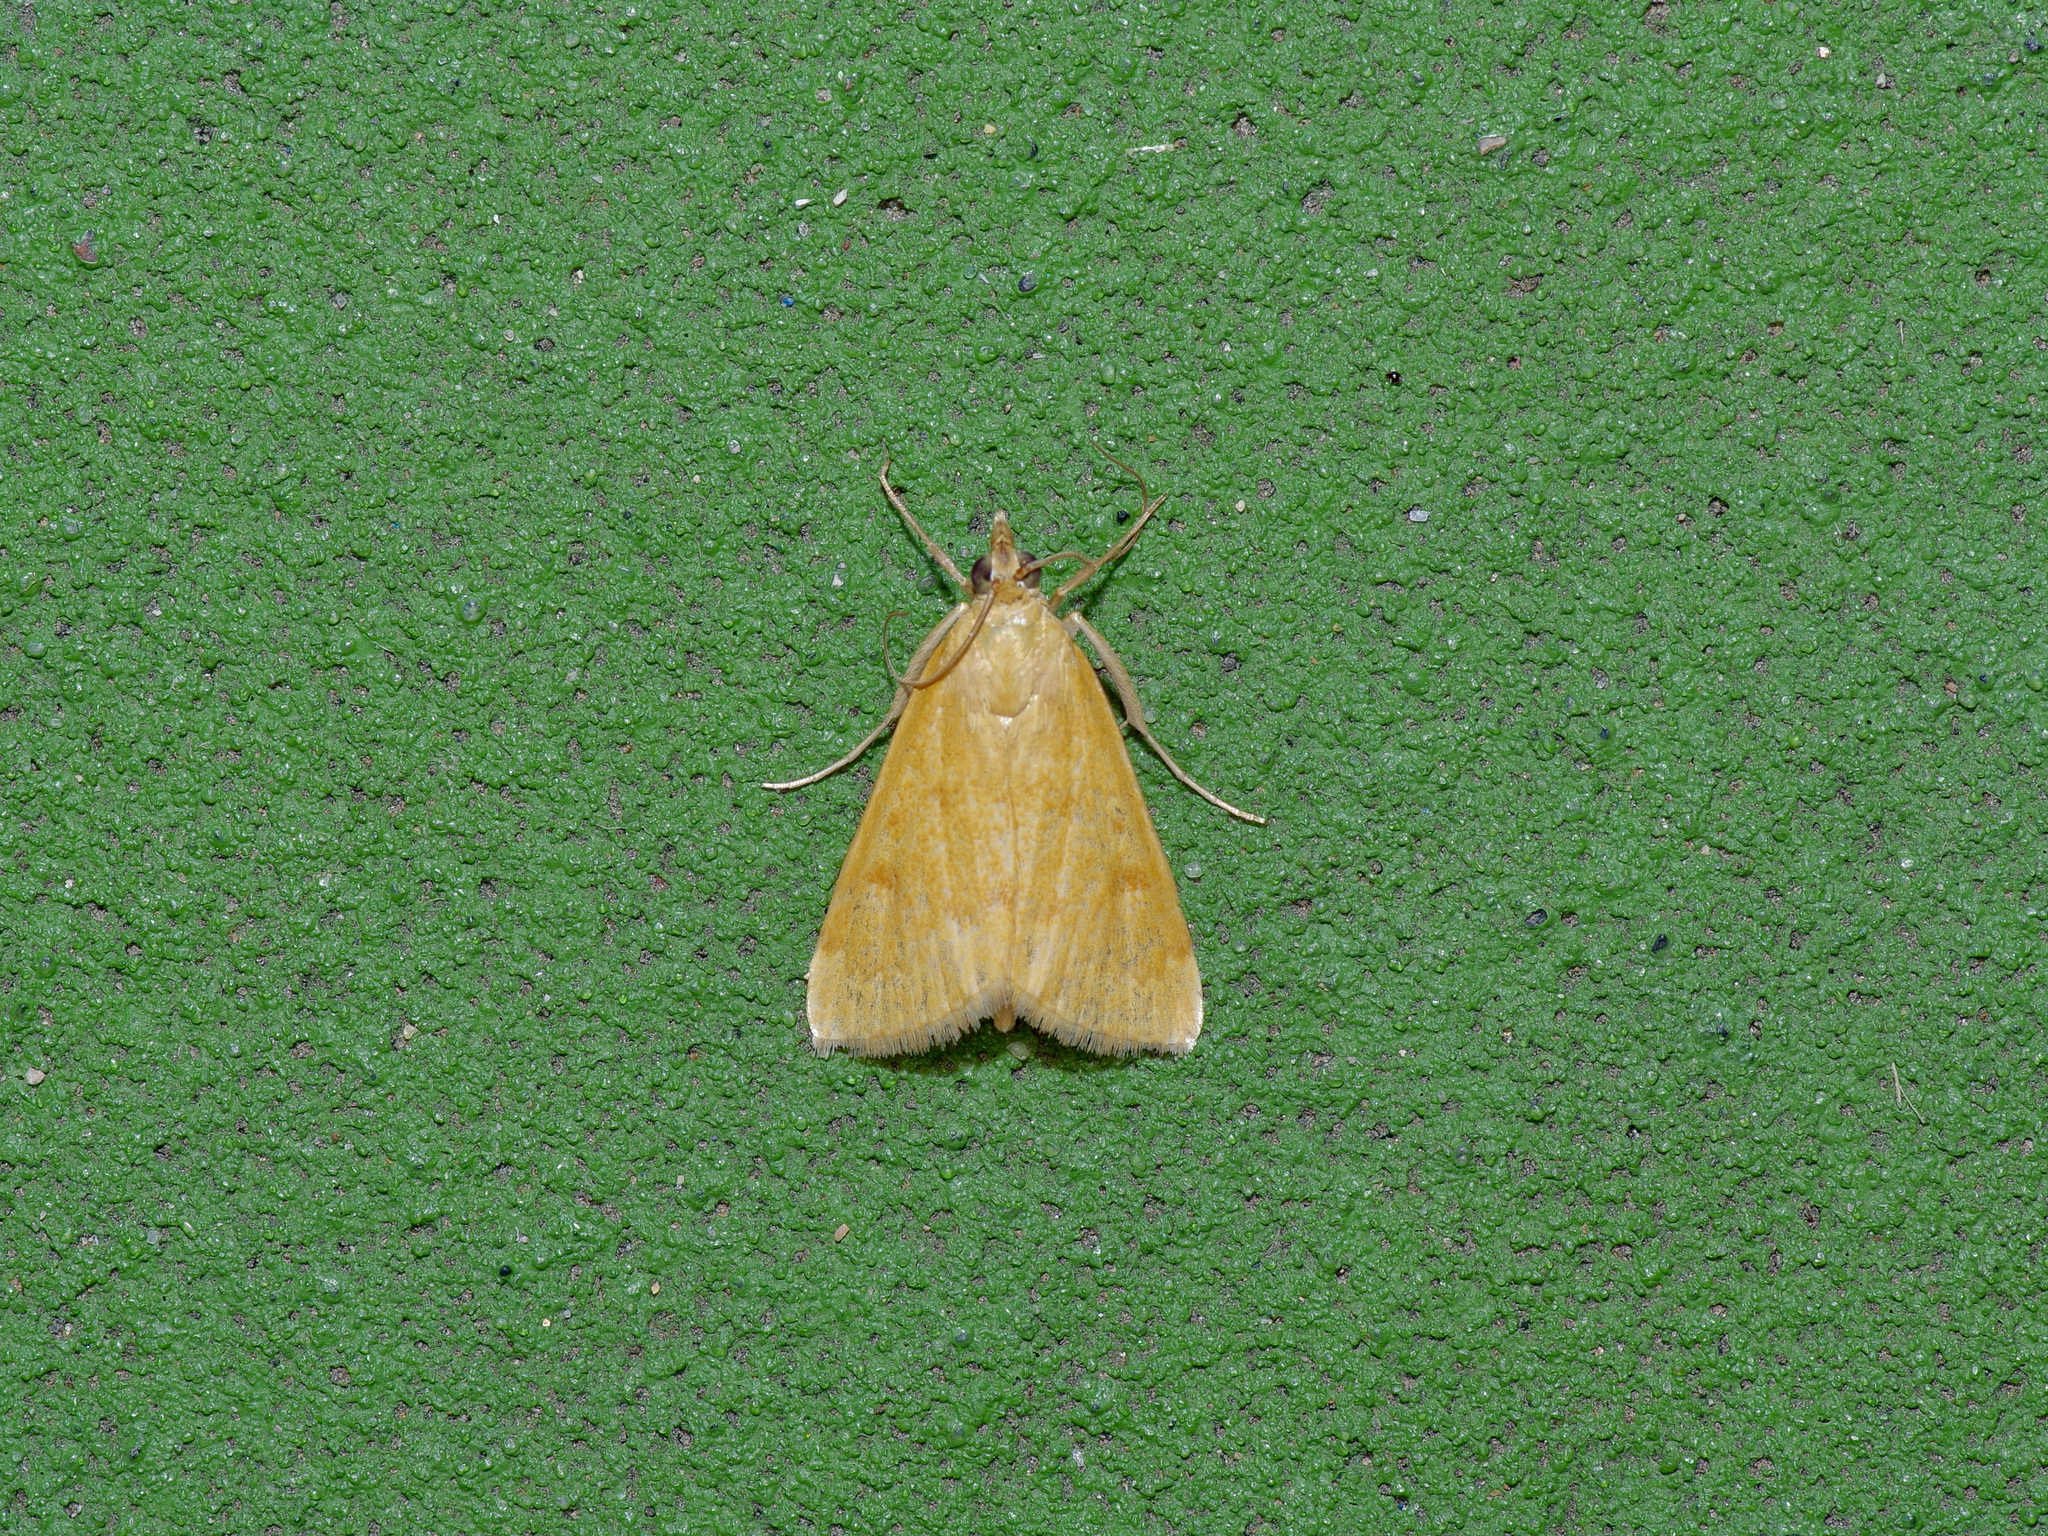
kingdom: Animalia
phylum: Arthropoda
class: Insecta
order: Lepidoptera
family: Crambidae
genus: Achyra
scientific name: Achyra rantalis
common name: Garden webworm
